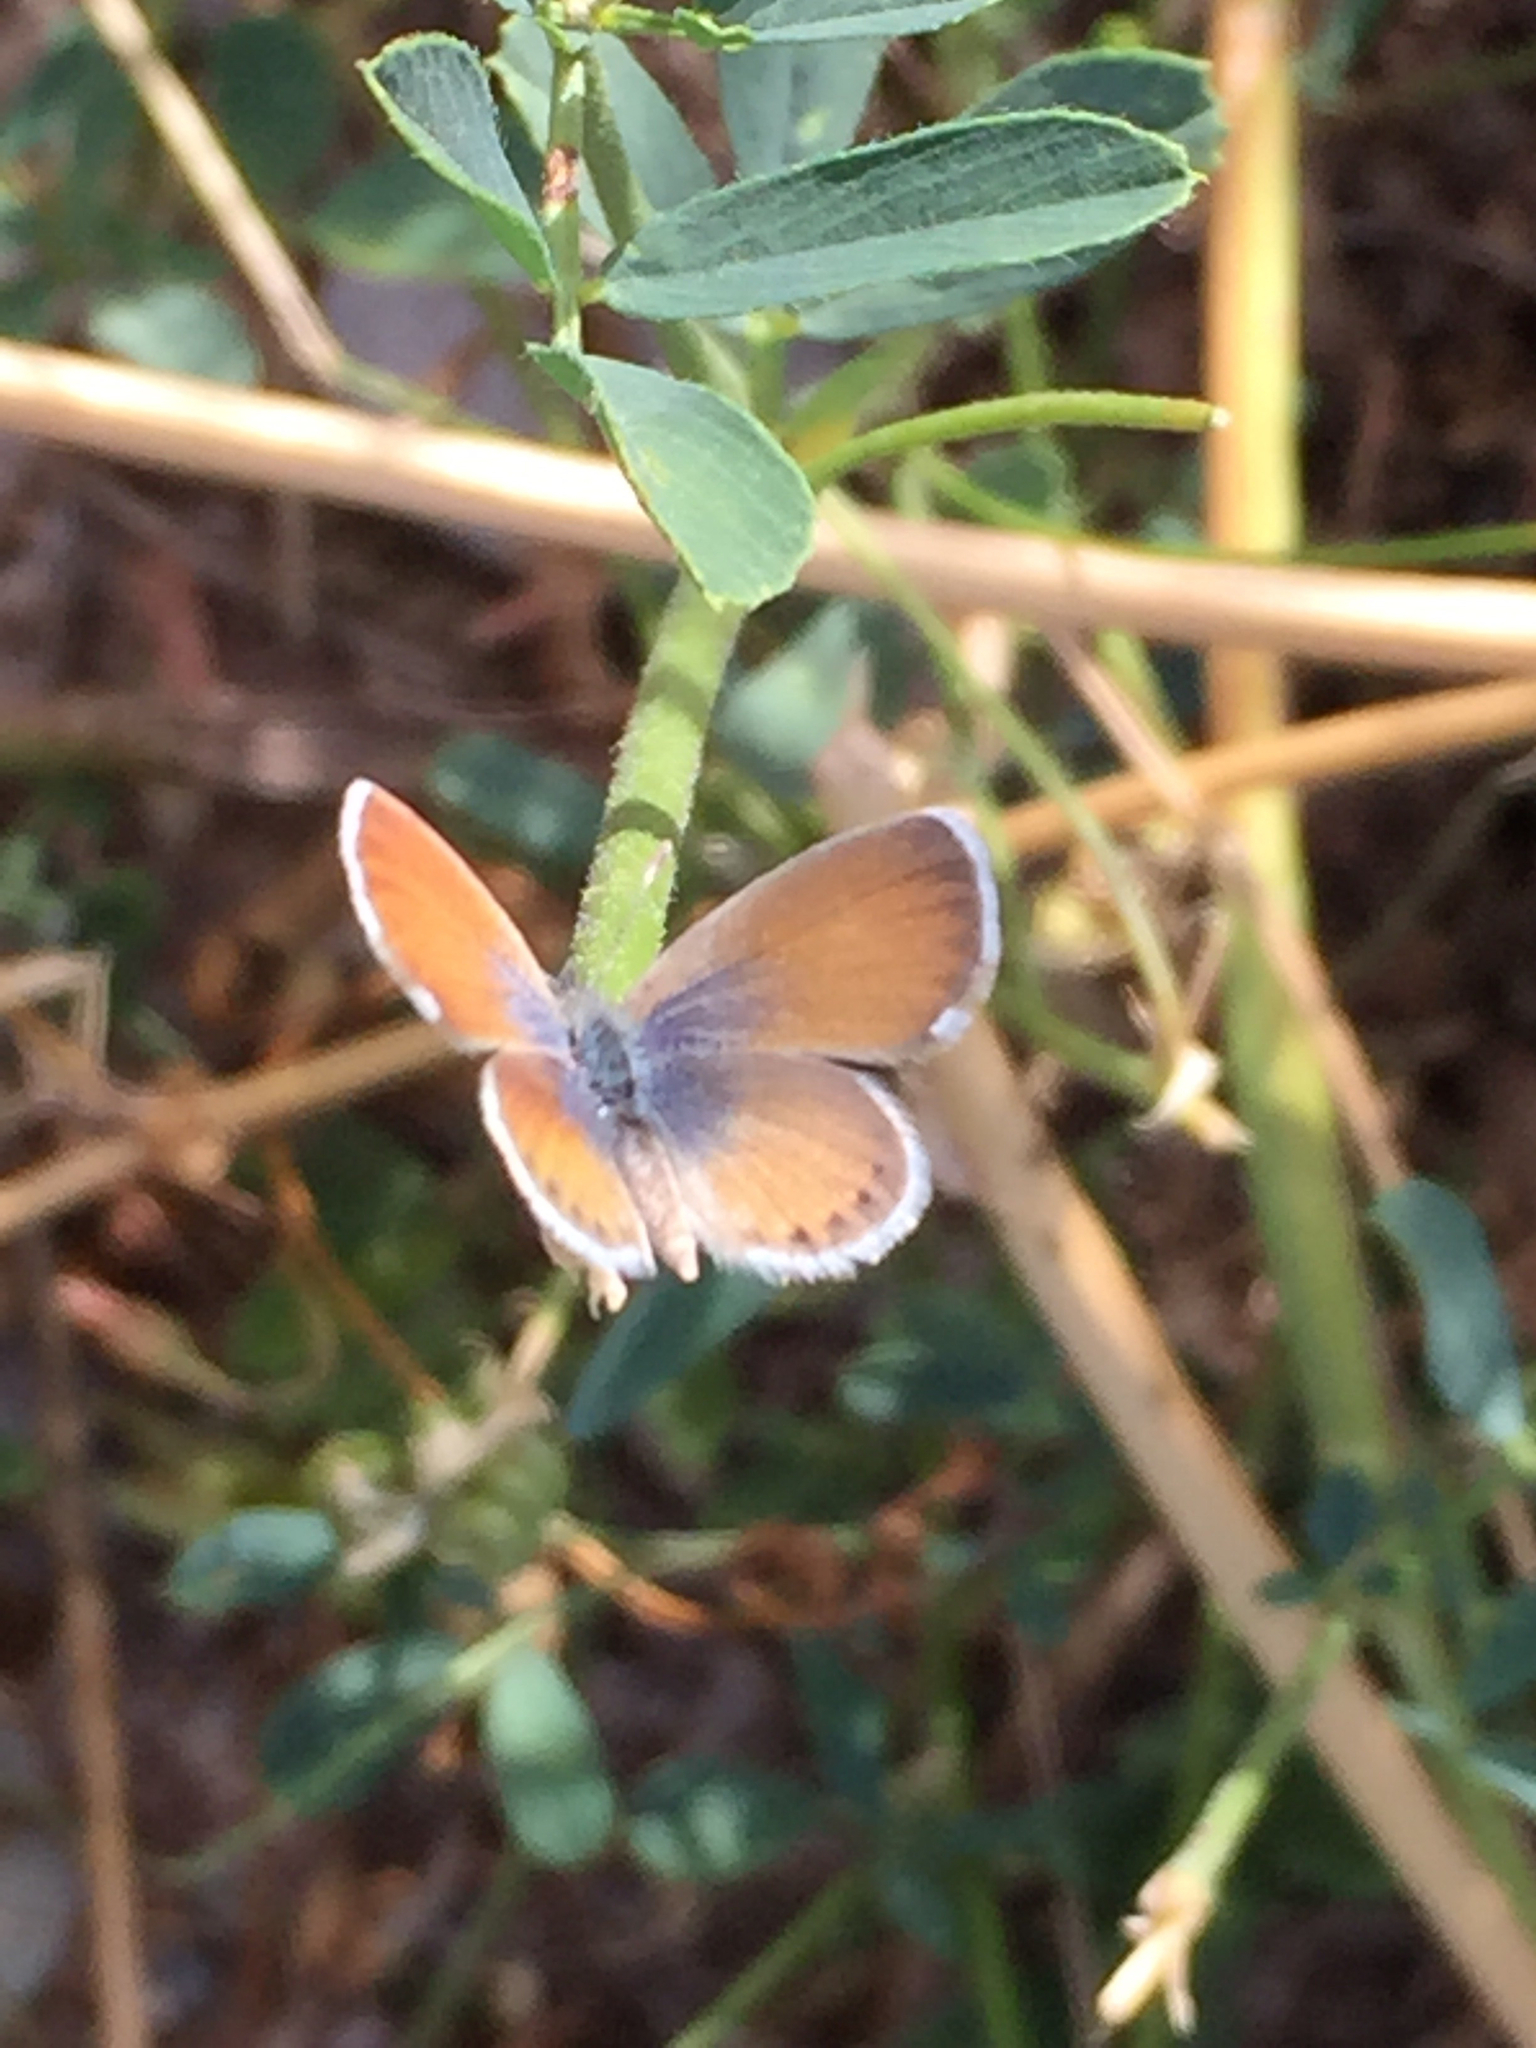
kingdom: Animalia
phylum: Arthropoda
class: Insecta
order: Lepidoptera
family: Lycaenidae
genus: Brephidium
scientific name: Brephidium exilis
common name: Pygmy blue
